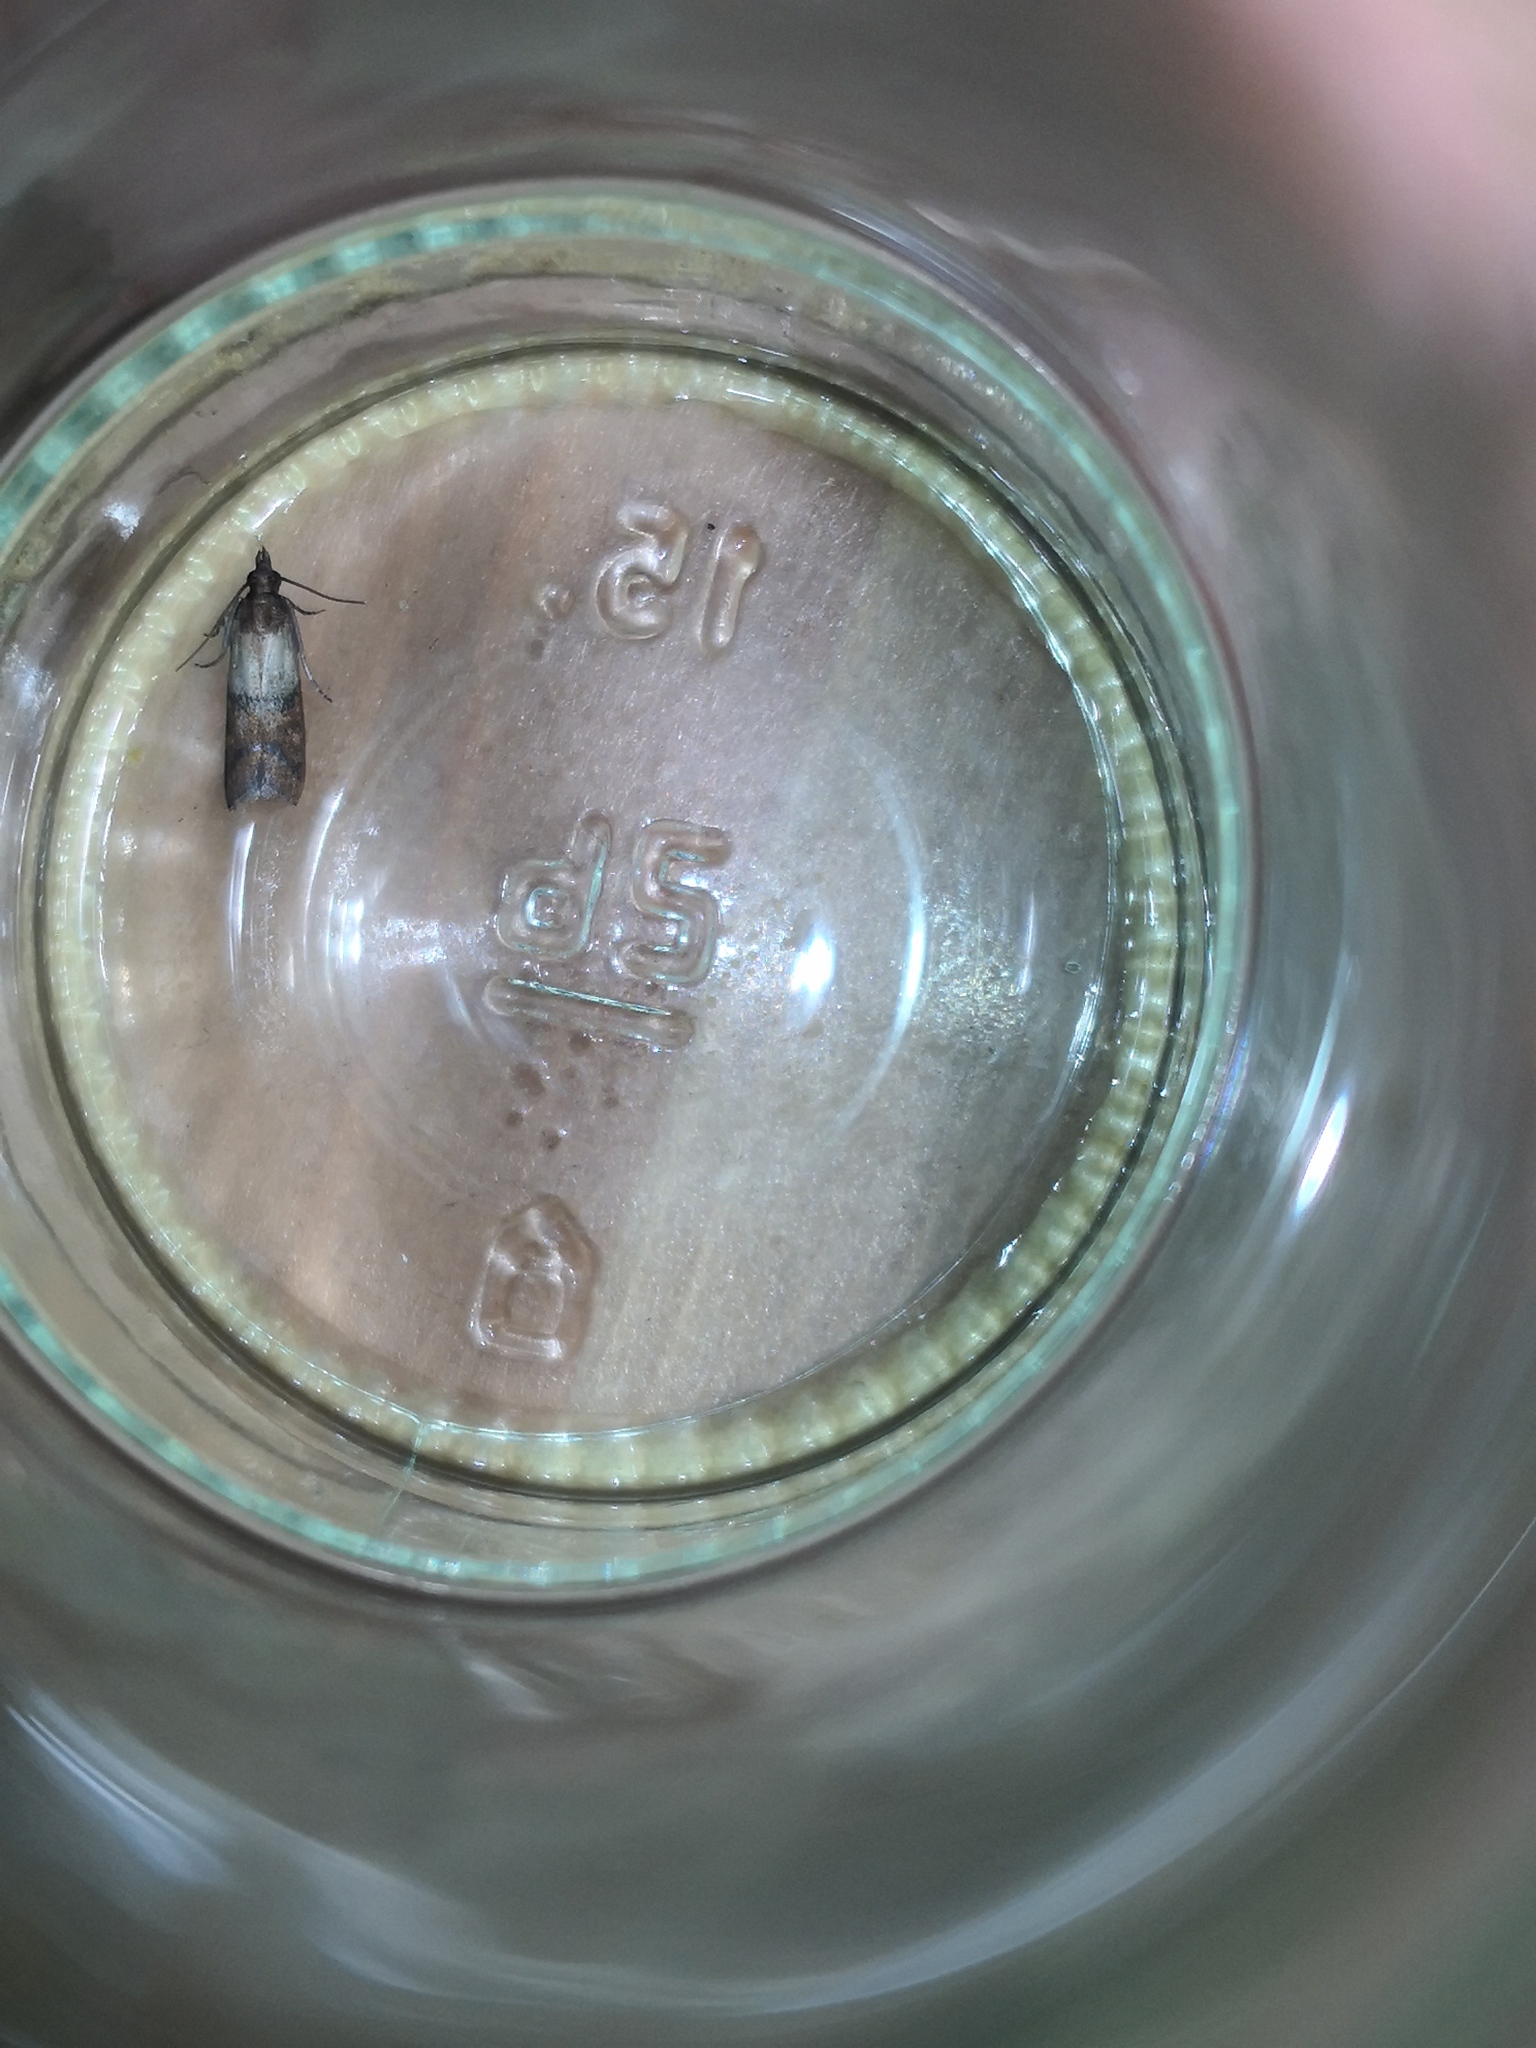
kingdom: Animalia
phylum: Arthropoda
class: Insecta
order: Lepidoptera
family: Pyralidae
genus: Plodia
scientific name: Plodia interpunctella
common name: Indian meal moth
